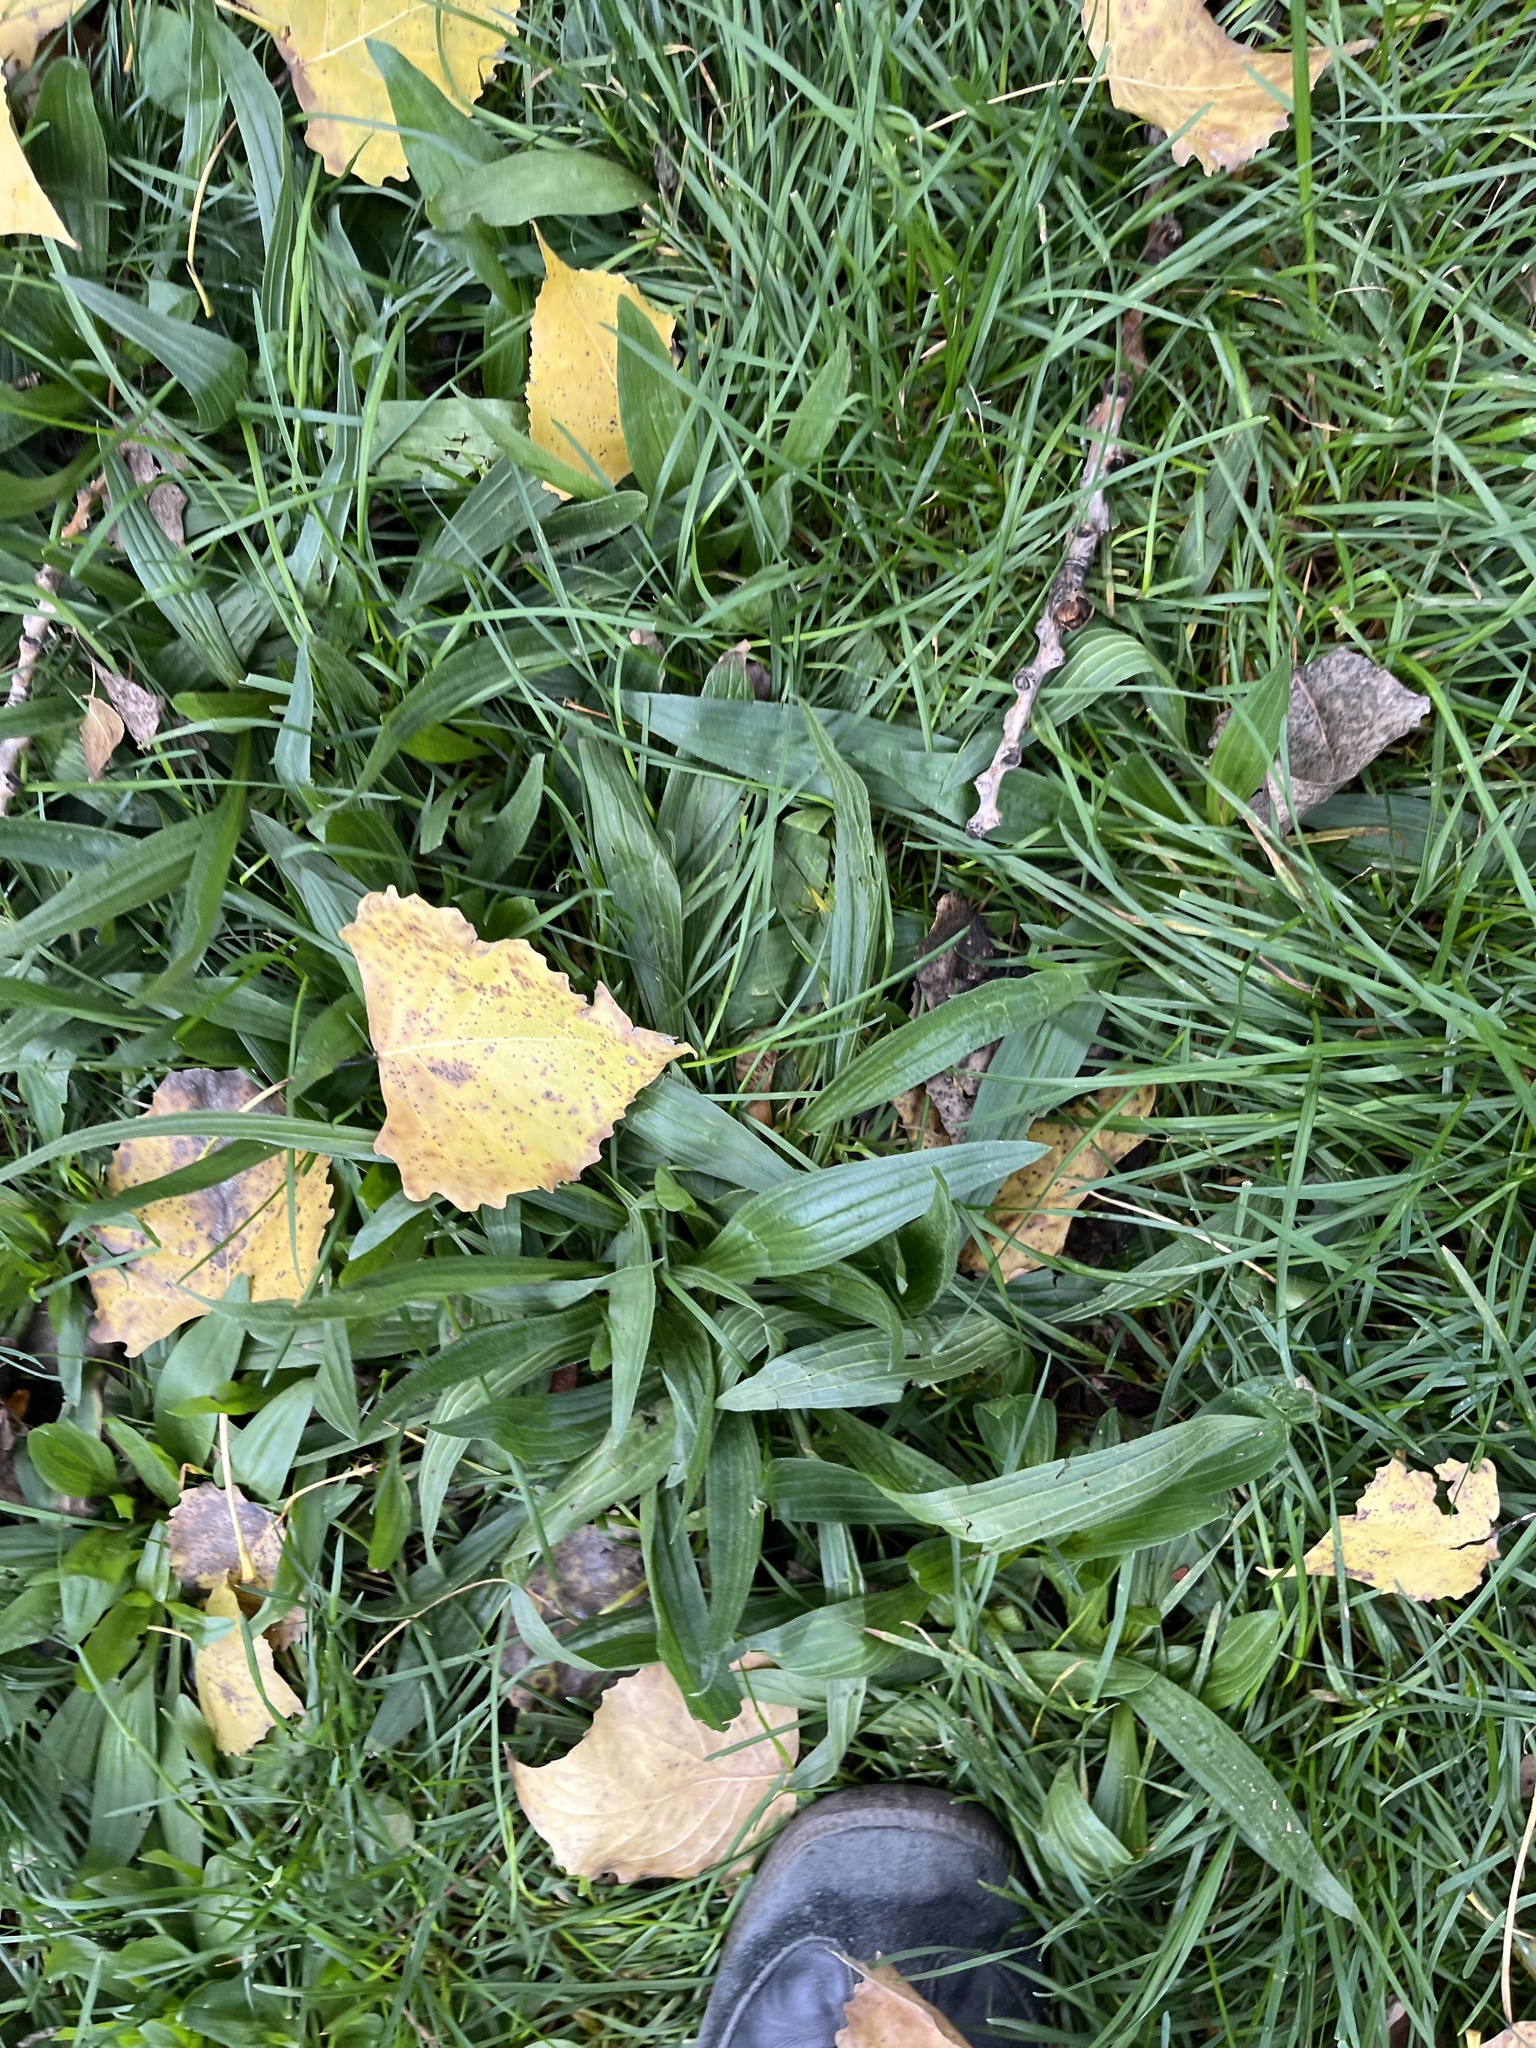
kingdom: Plantae
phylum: Tracheophyta
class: Magnoliopsida
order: Lamiales
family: Plantaginaceae
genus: Plantago
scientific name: Plantago lanceolata
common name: Ribwort plantain
